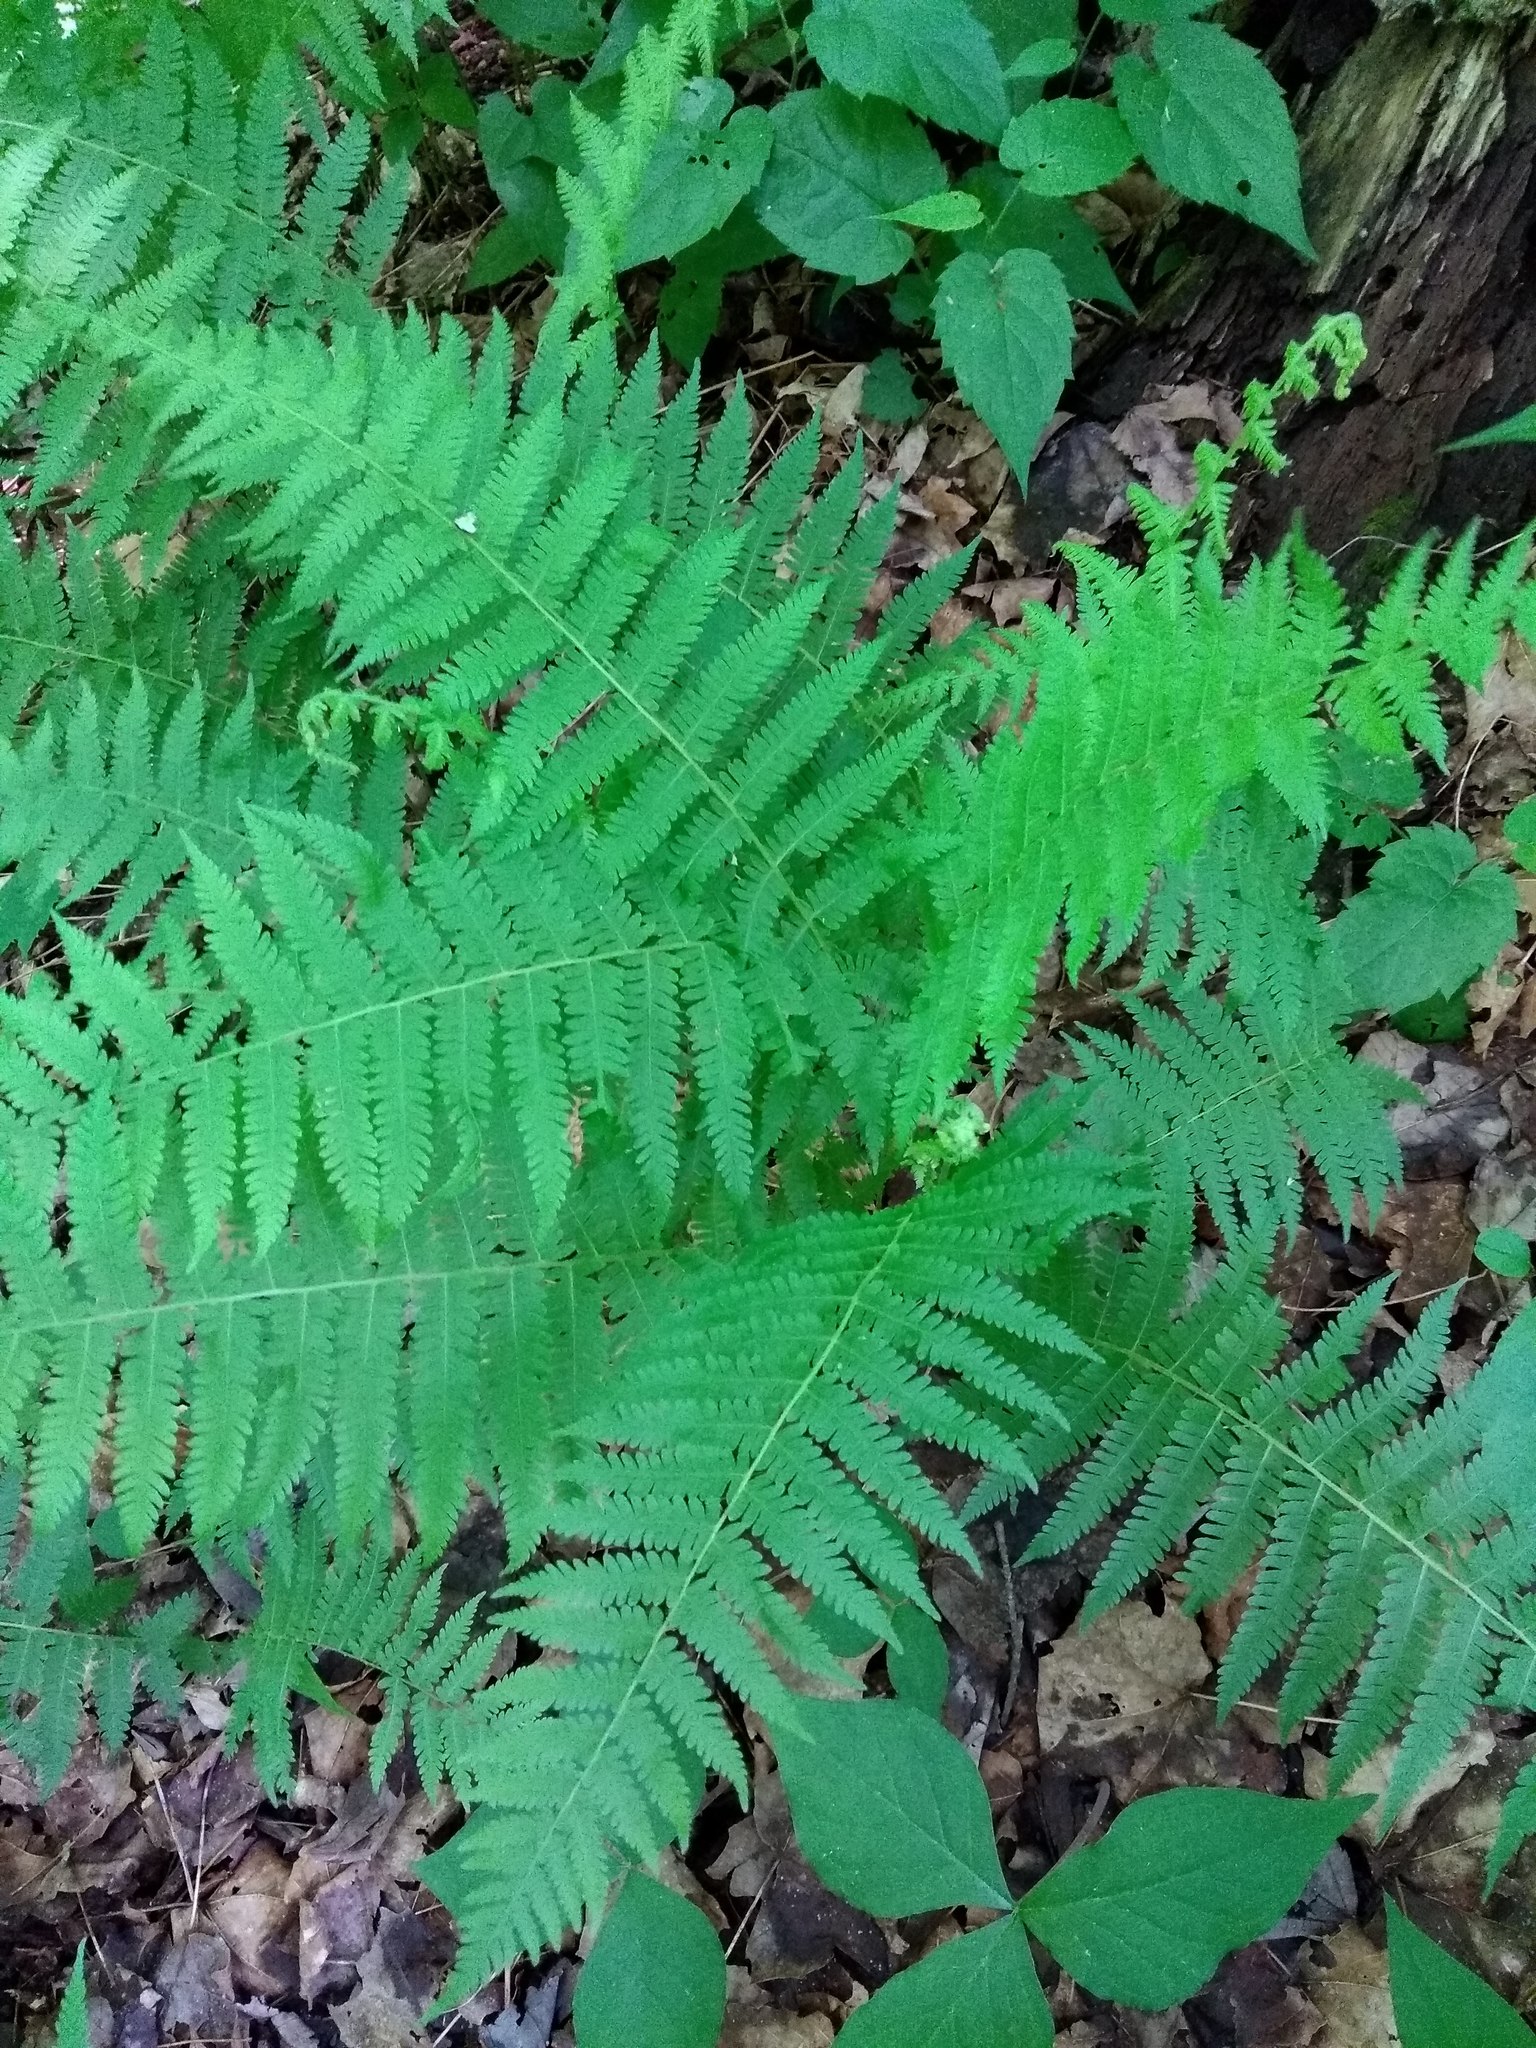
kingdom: Plantae
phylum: Tracheophyta
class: Polypodiopsida
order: Polypodiales
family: Thelypteridaceae
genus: Amauropelta
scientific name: Amauropelta noveboracensis
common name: New york fern
